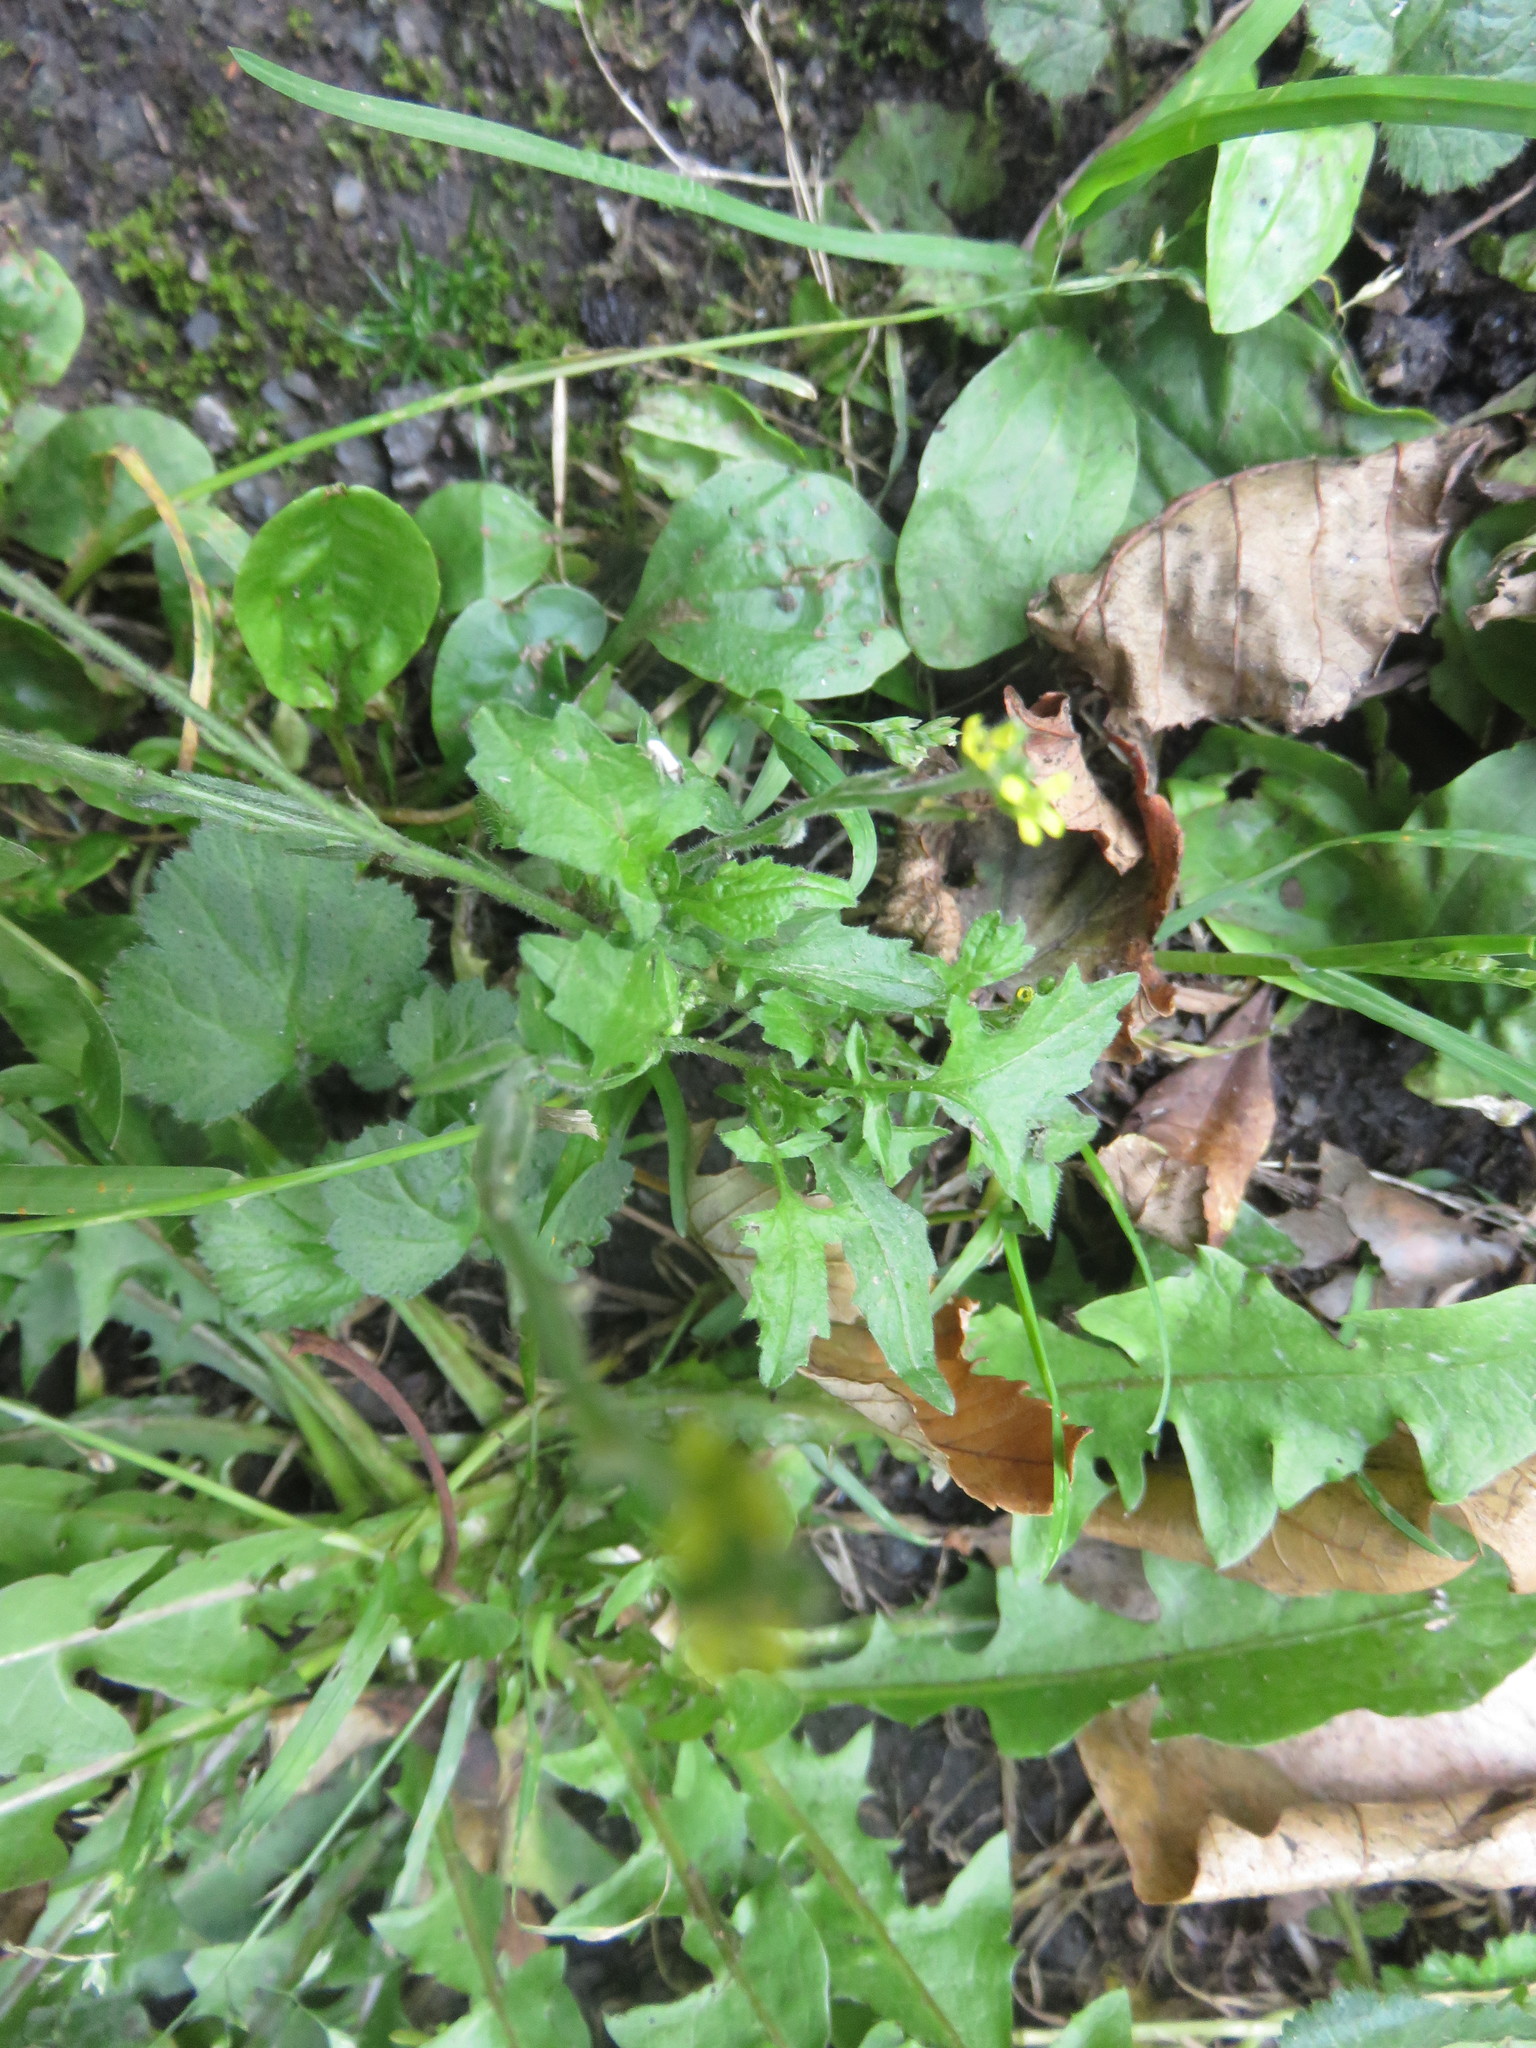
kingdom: Plantae
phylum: Tracheophyta
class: Magnoliopsida
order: Brassicales
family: Brassicaceae
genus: Sisymbrium
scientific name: Sisymbrium officinale
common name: Hedge mustard
